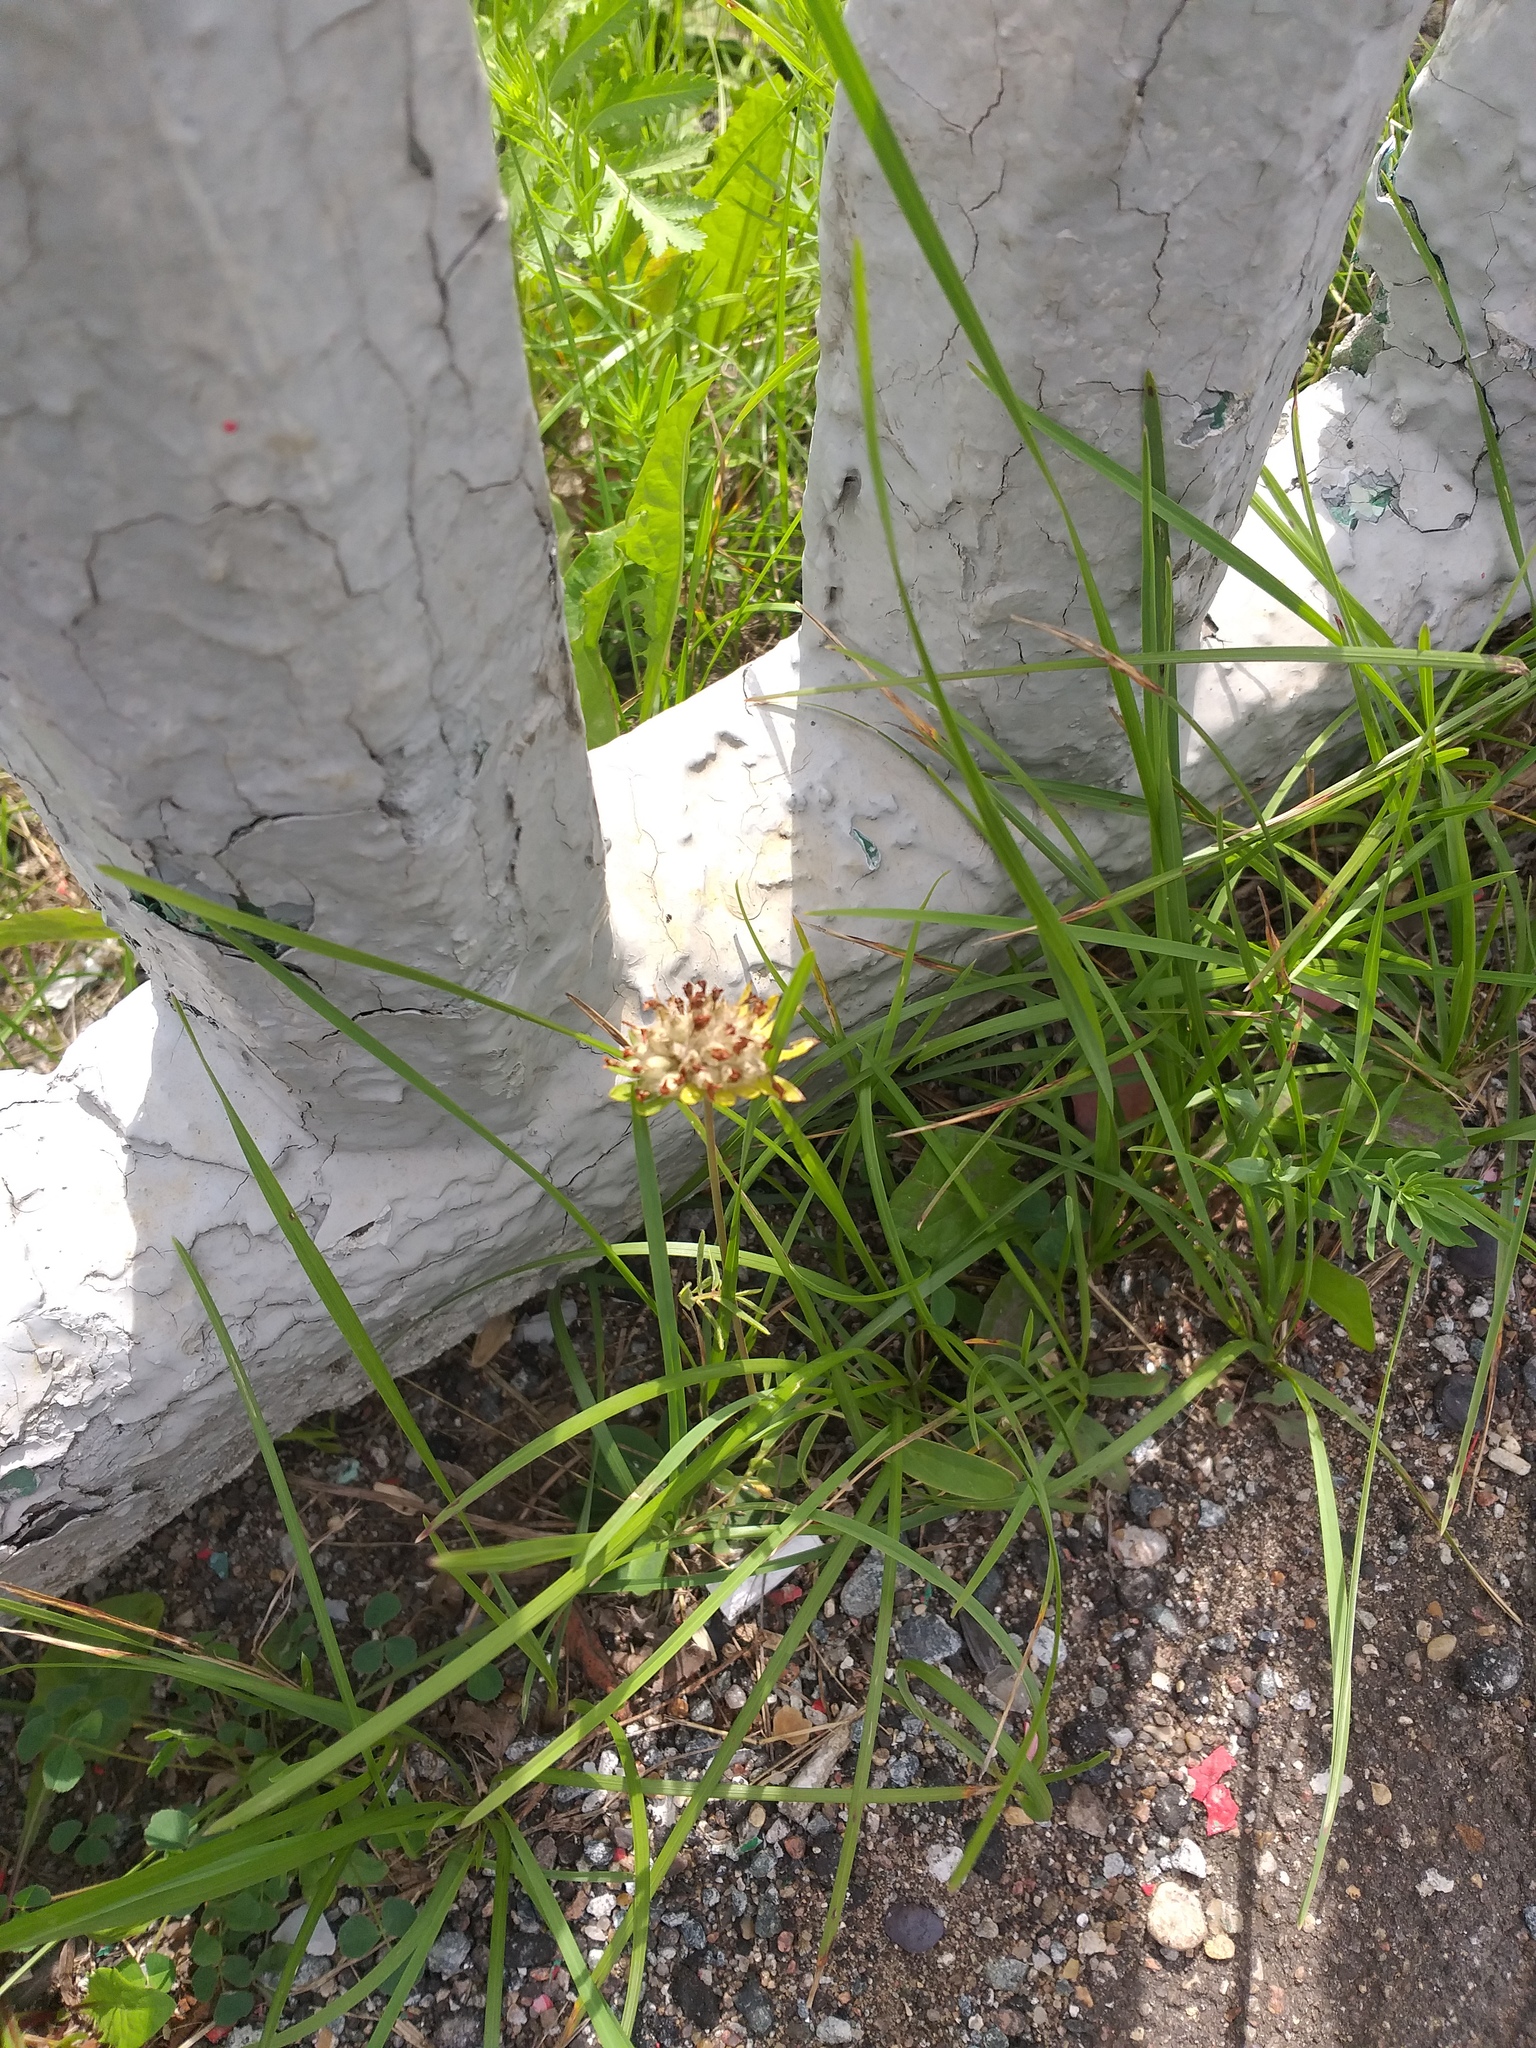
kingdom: Plantae
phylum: Tracheophyta
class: Magnoliopsida
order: Fabales
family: Fabaceae
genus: Anthyllis
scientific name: Anthyllis vulneraria
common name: Kidney vetch
